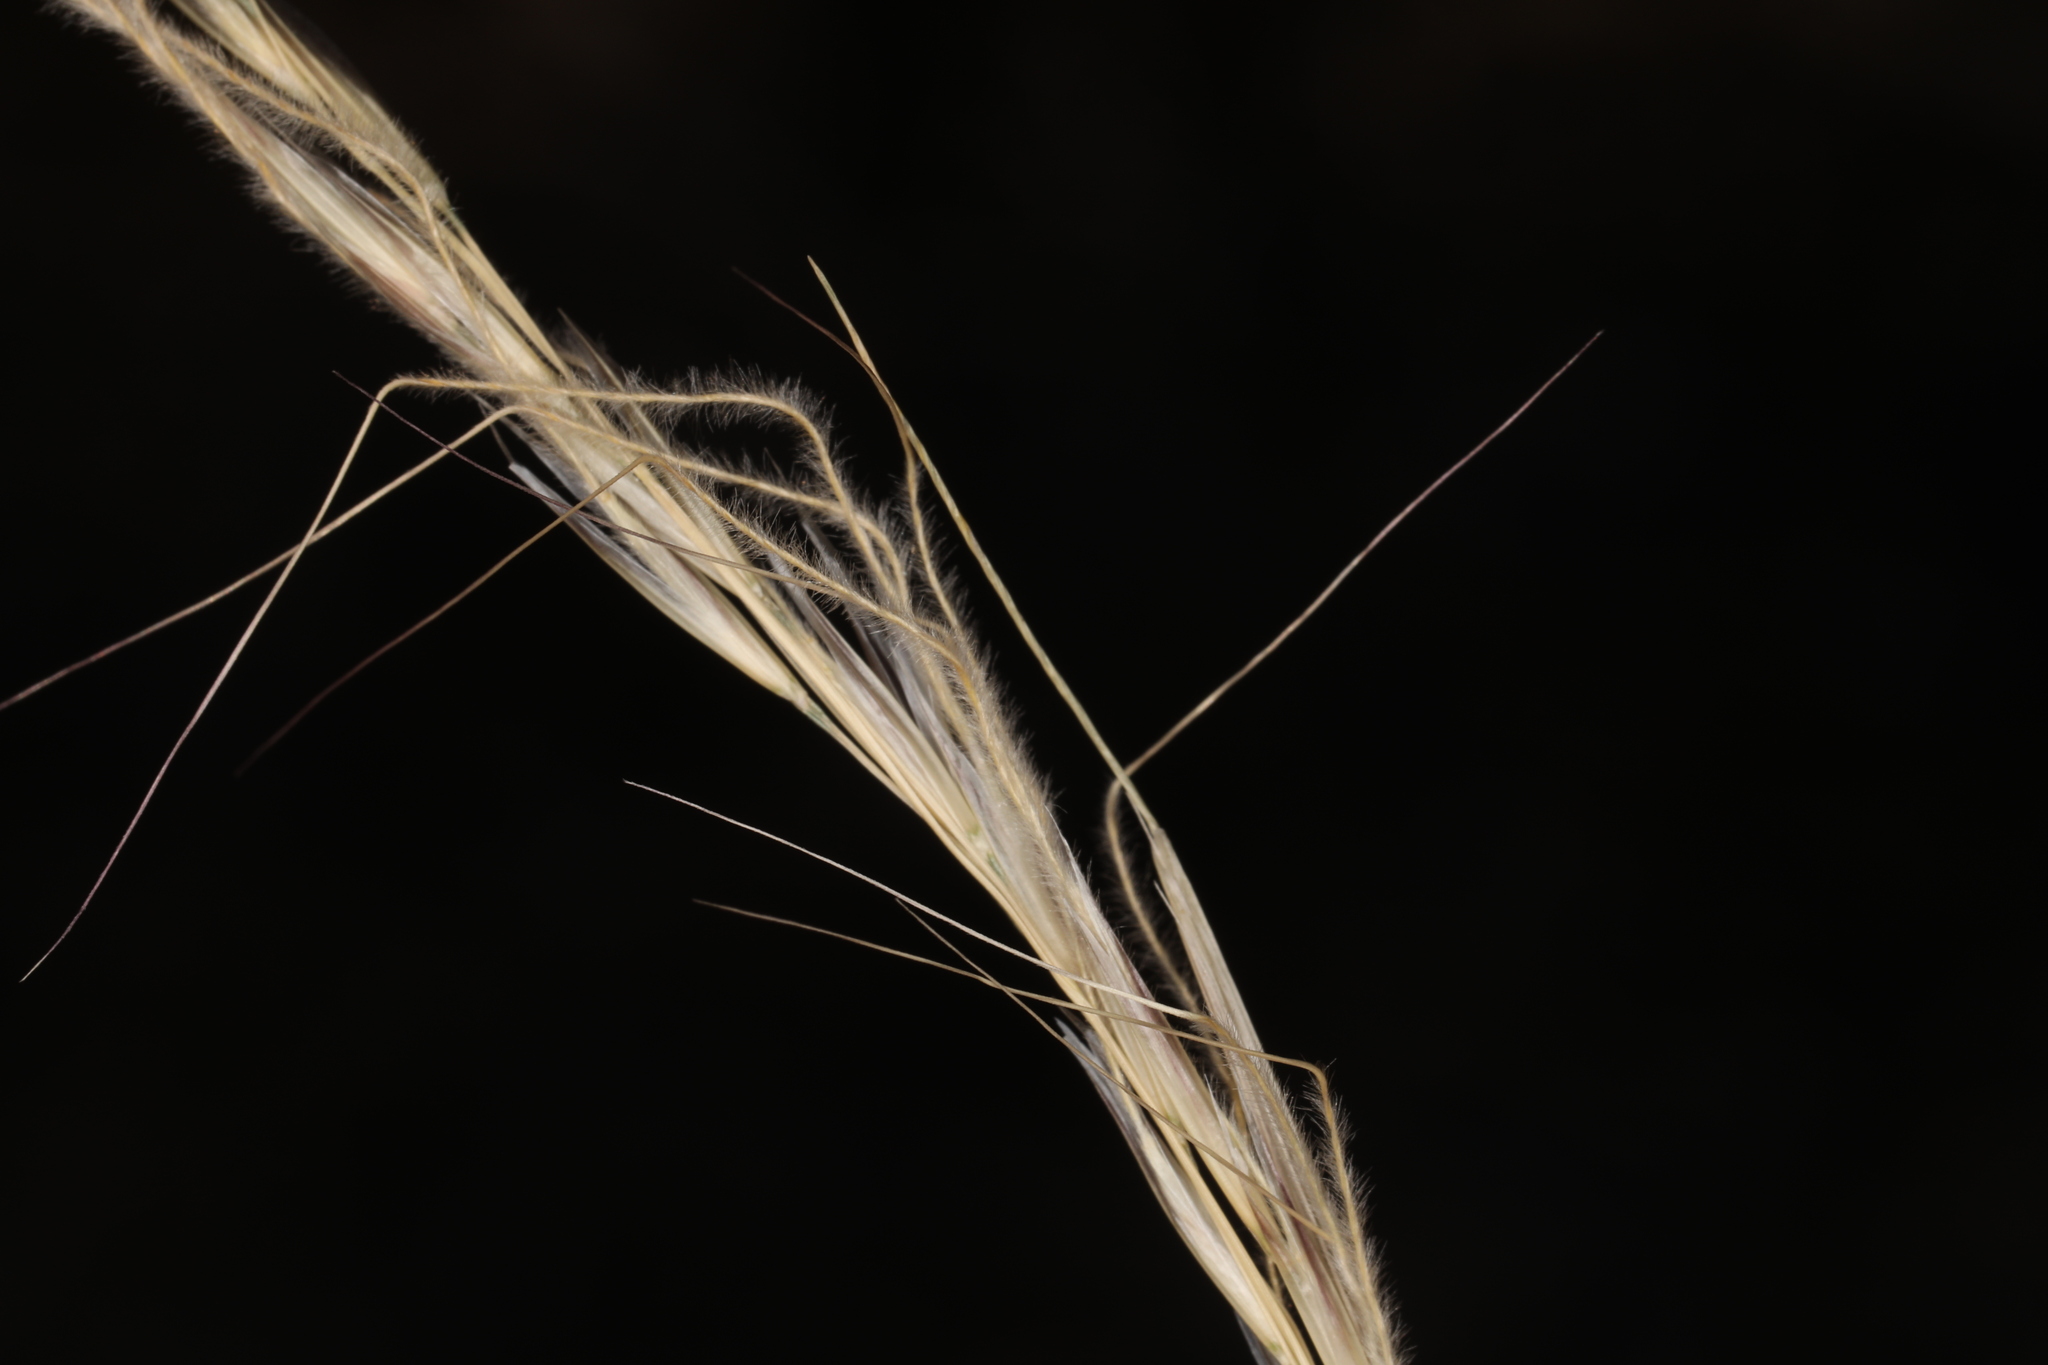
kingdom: Plantae
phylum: Tracheophyta
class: Liliopsida
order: Poales
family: Poaceae
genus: Eriocoma
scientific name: Eriocoma occidentalis
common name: Stiff needlegrass
